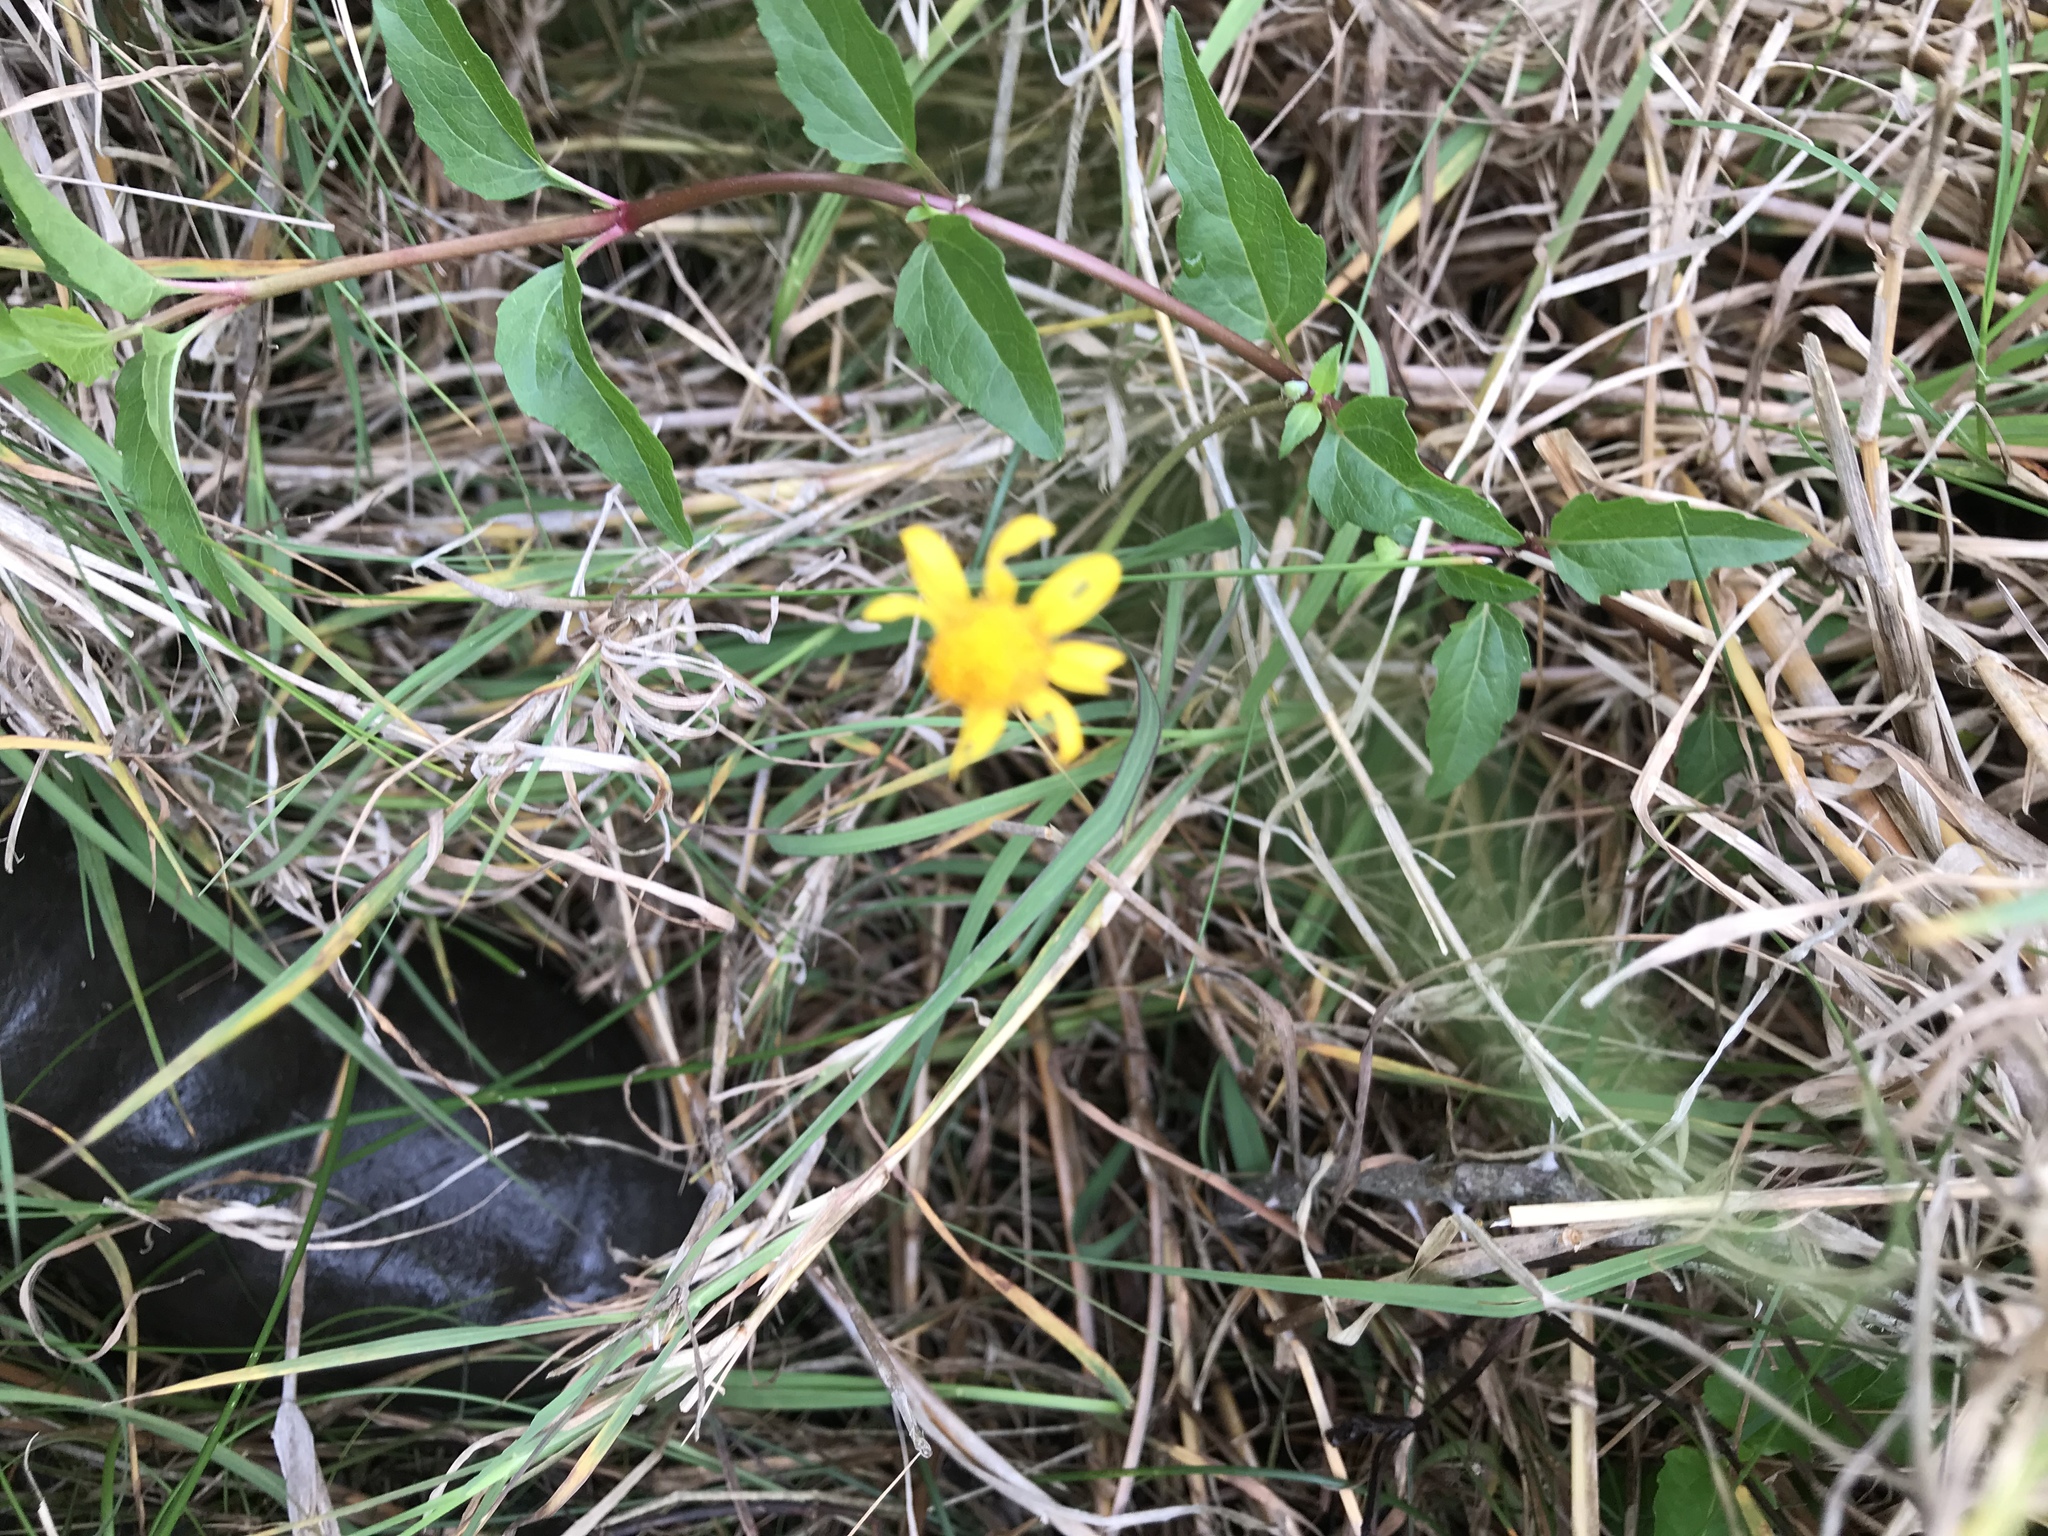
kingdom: Plantae
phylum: Tracheophyta
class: Magnoliopsida
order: Asterales
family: Asteraceae
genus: Acmella
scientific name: Acmella repens
